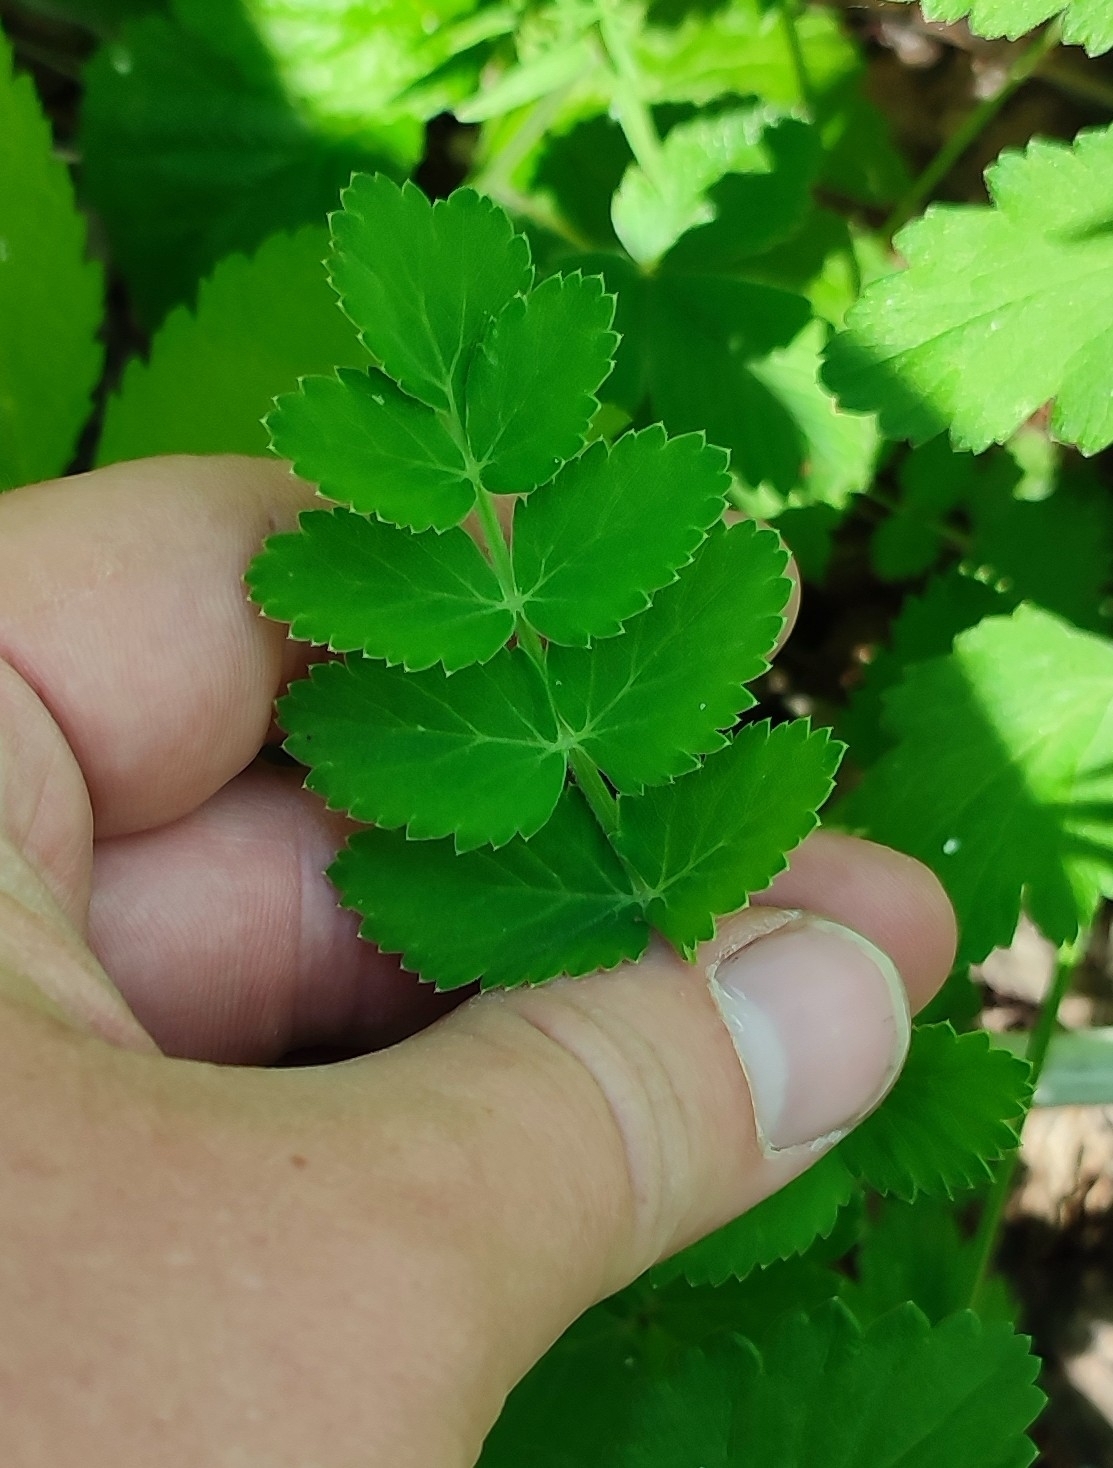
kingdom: Plantae
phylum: Tracheophyta
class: Magnoliopsida
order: Apiales
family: Apiaceae
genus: Pimpinella
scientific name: Pimpinella saxifraga
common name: Burnet-saxifrage
